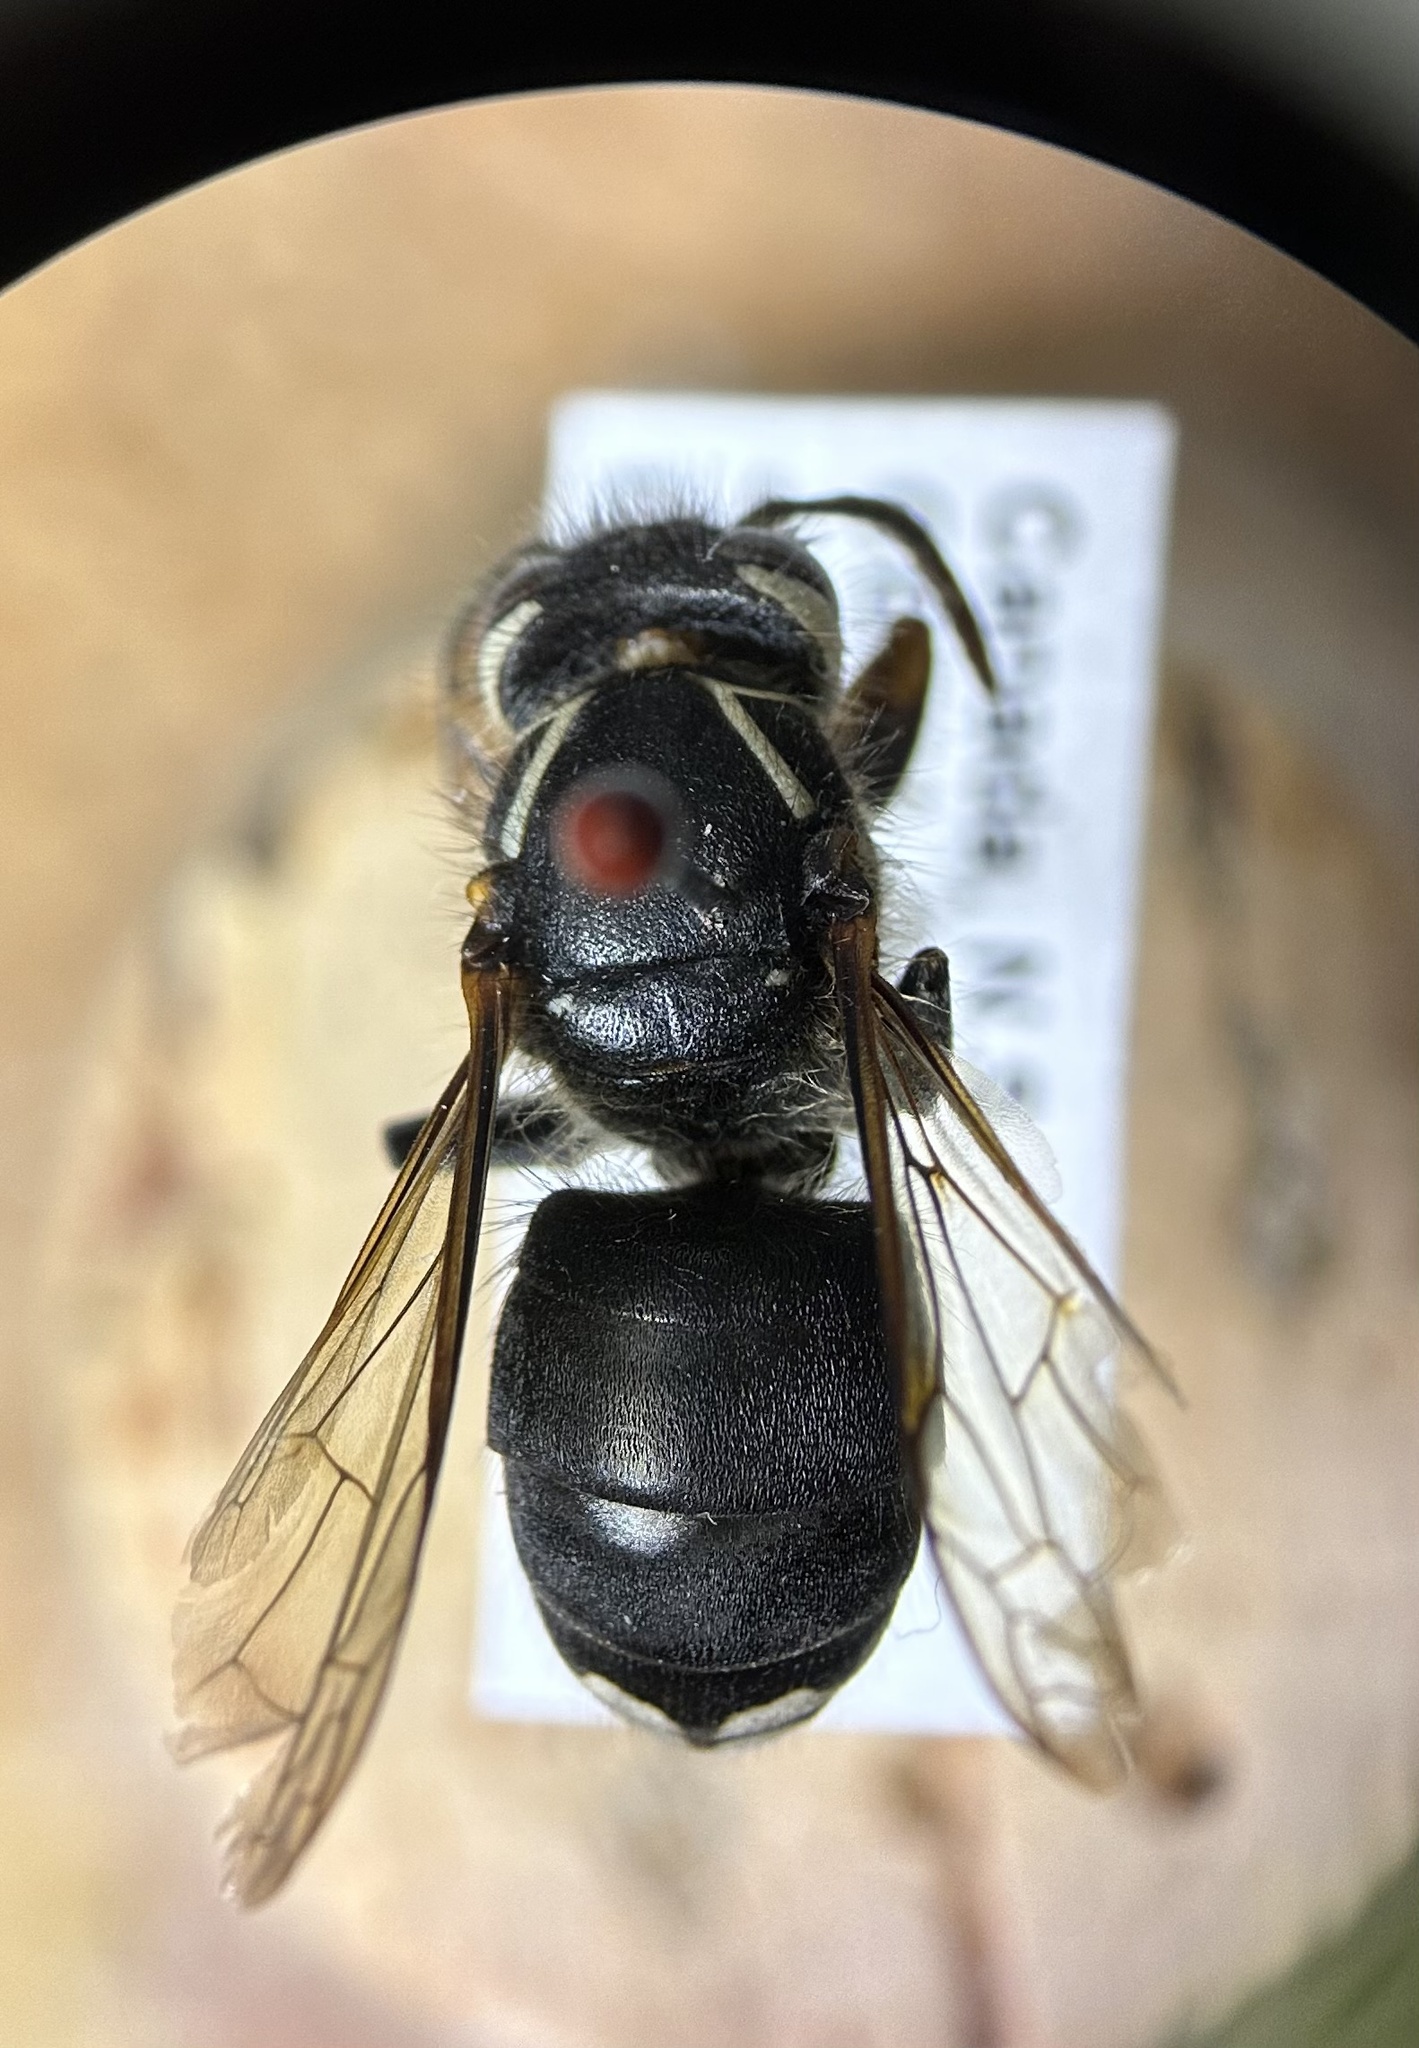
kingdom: Animalia
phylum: Arthropoda
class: Insecta
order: Hymenoptera
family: Vespidae
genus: Dolichovespula
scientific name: Dolichovespula maculata
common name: Bald-faced hornet
